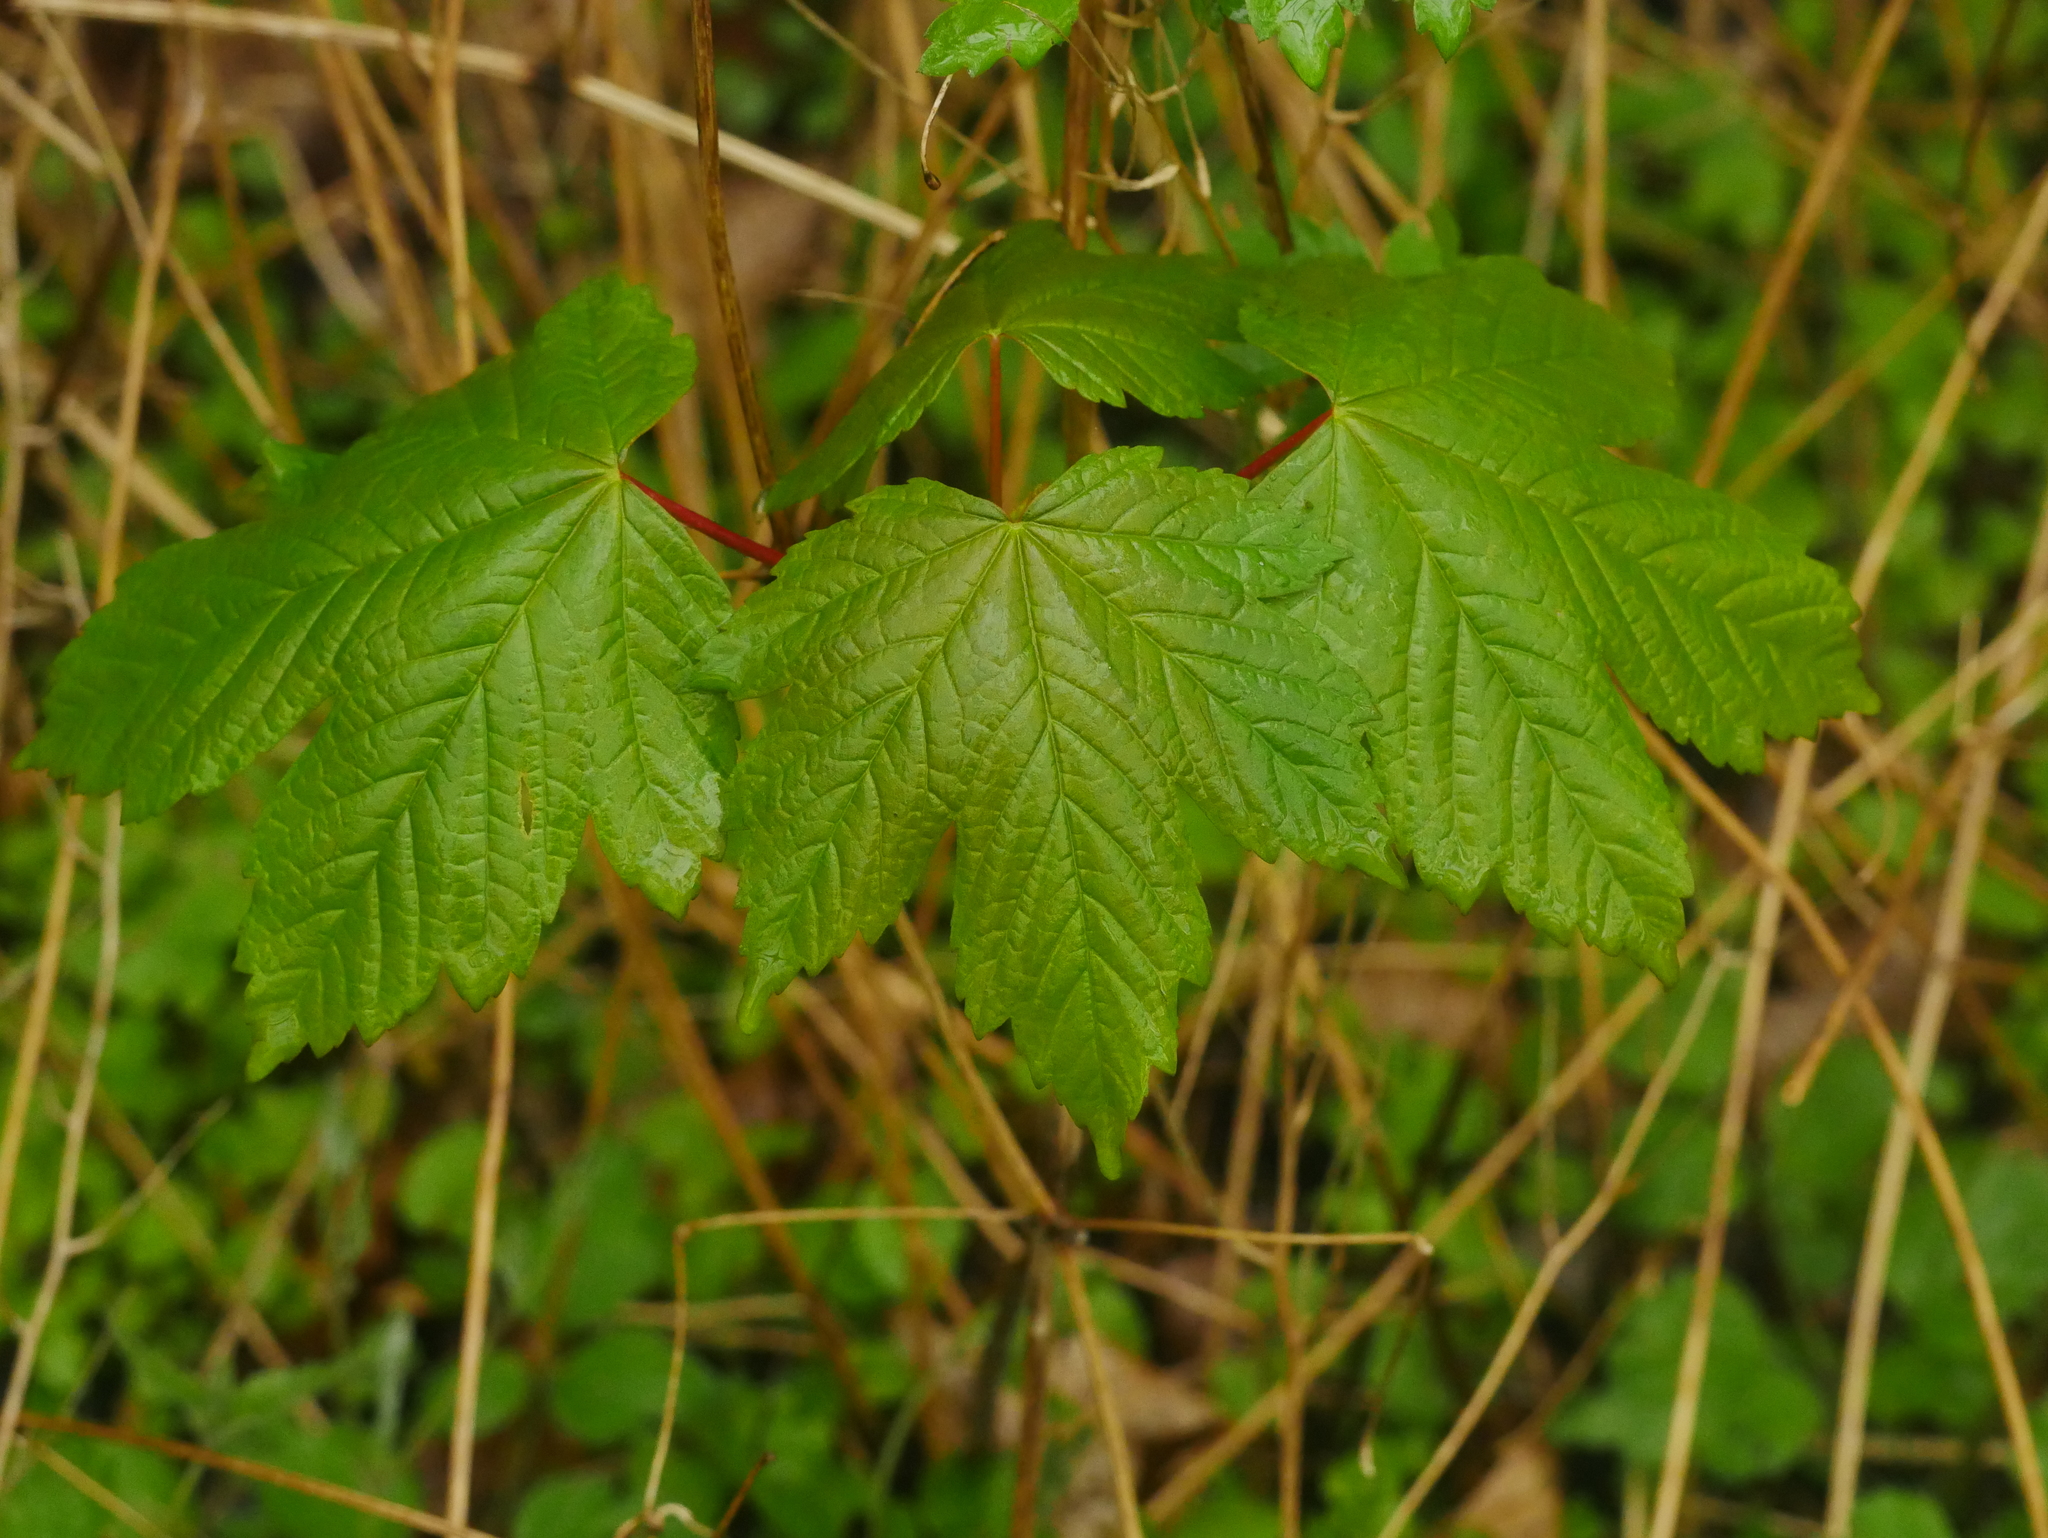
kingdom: Plantae
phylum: Tracheophyta
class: Magnoliopsida
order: Sapindales
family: Sapindaceae
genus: Acer
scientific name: Acer pseudoplatanus
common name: Sycamore
